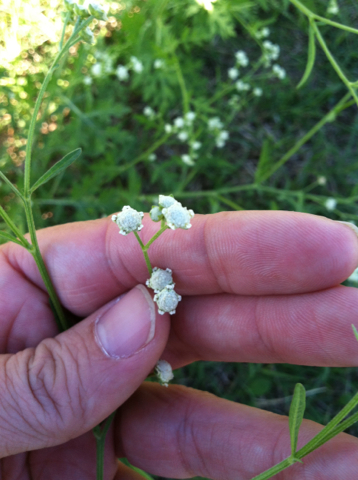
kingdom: Plantae
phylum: Tracheophyta
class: Magnoliopsida
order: Asterales
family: Asteraceae
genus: Parthenium
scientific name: Parthenium hysterophorus
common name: Santa maria feverfew
